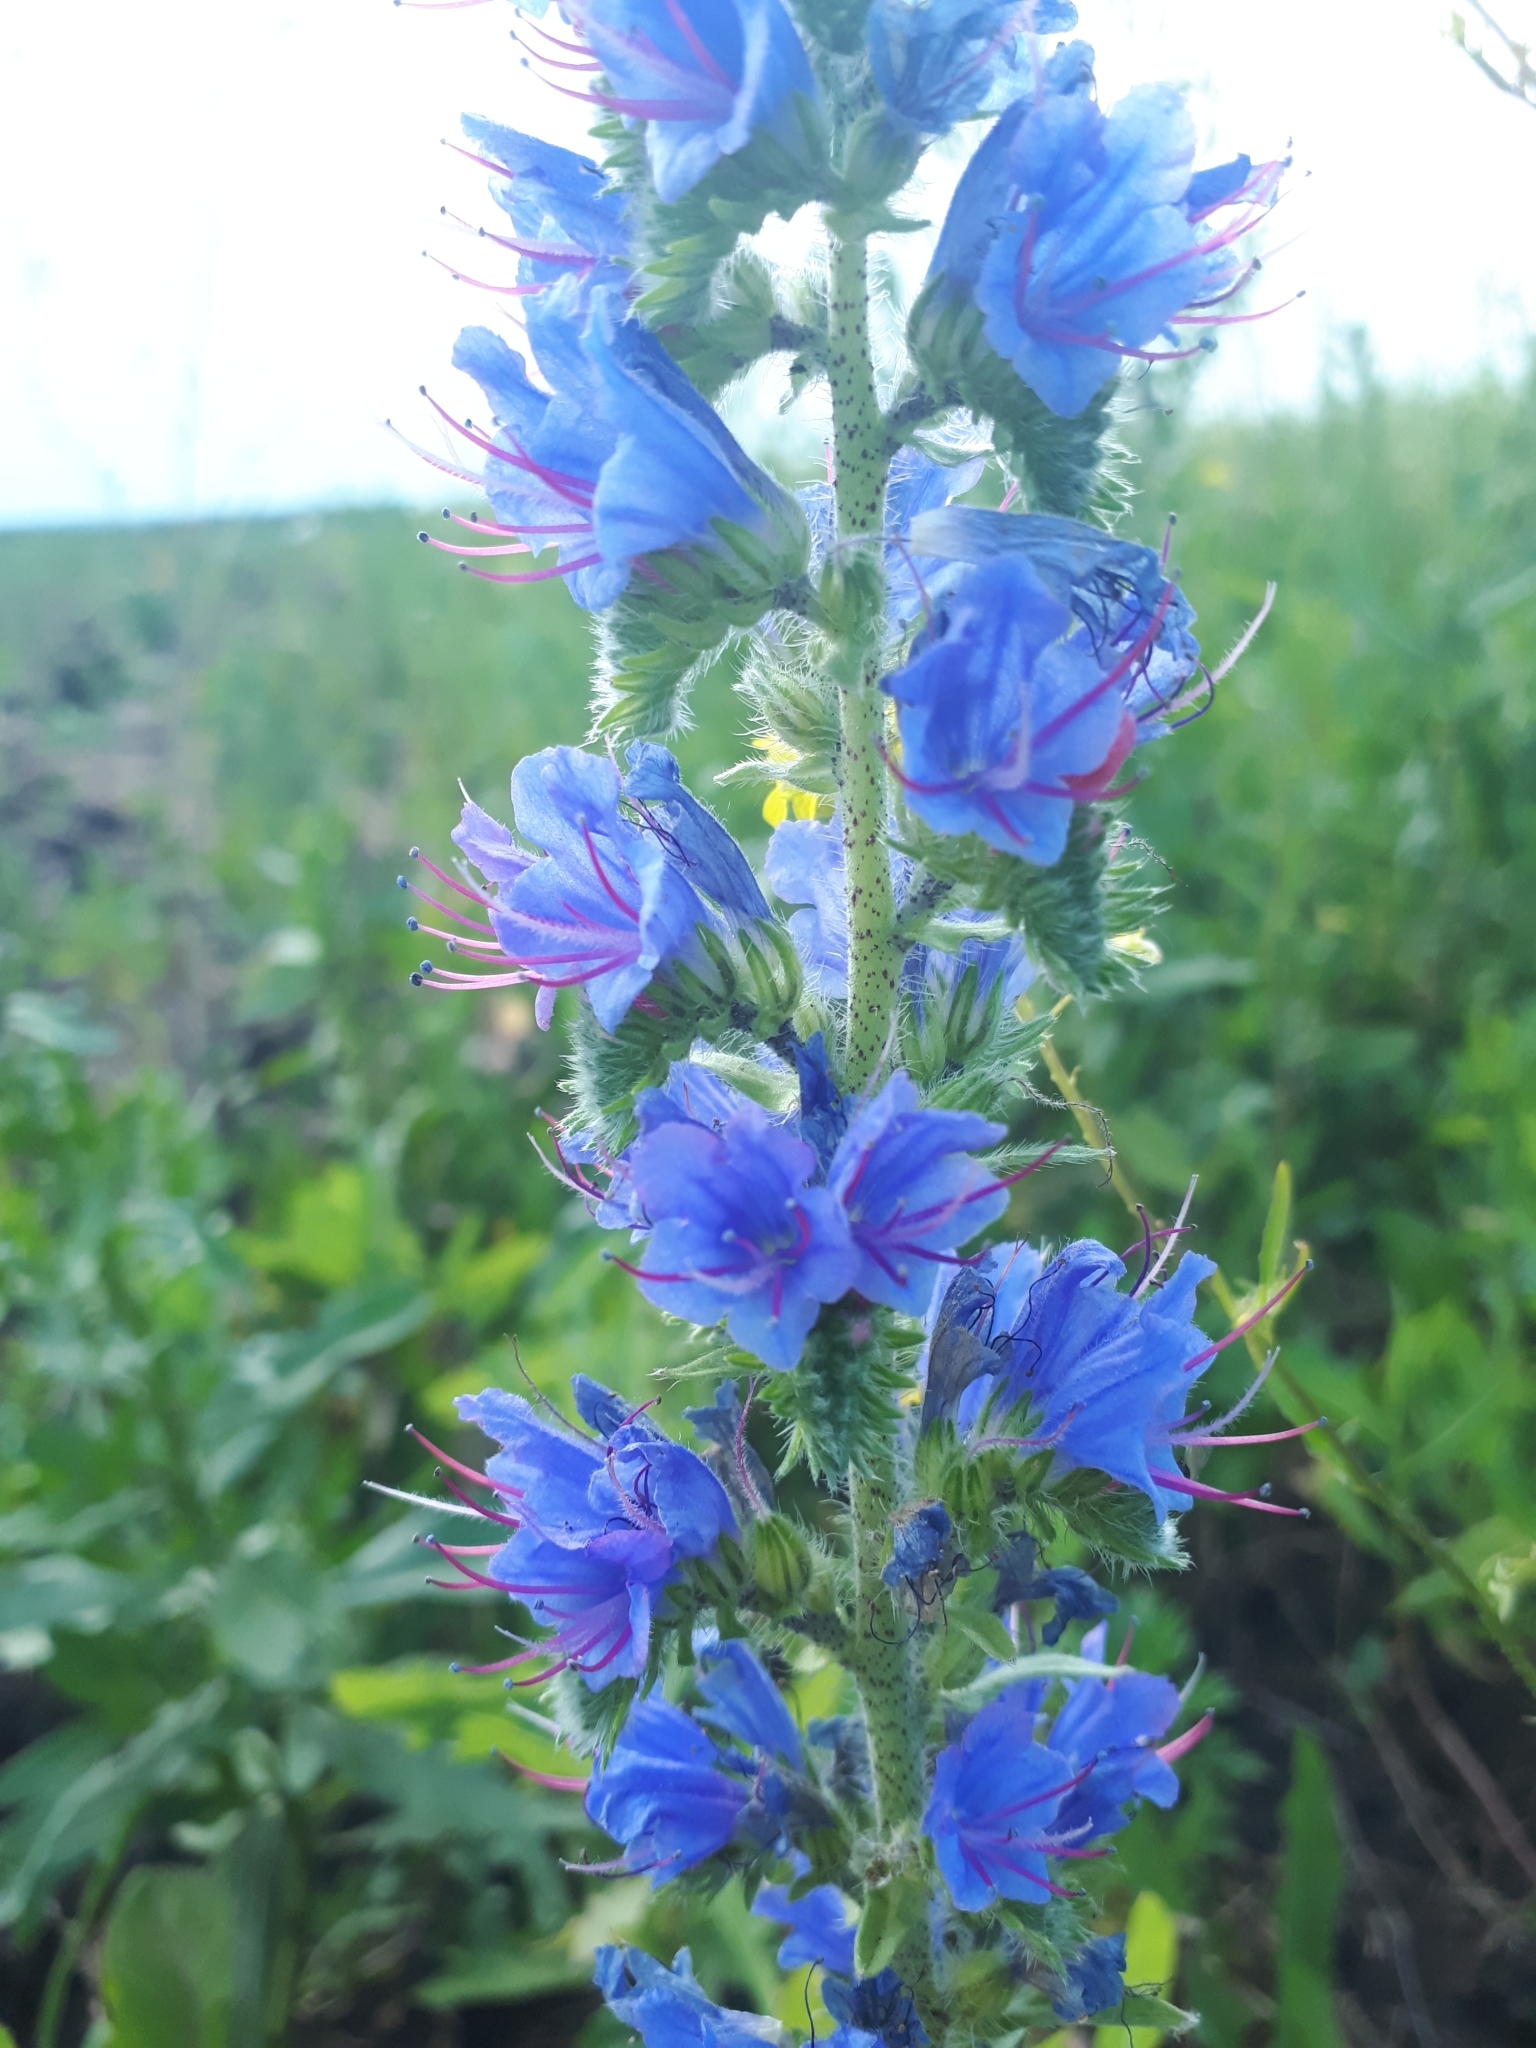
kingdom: Plantae
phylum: Tracheophyta
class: Magnoliopsida
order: Boraginales
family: Boraginaceae
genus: Echium
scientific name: Echium vulgare
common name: Common viper's bugloss
